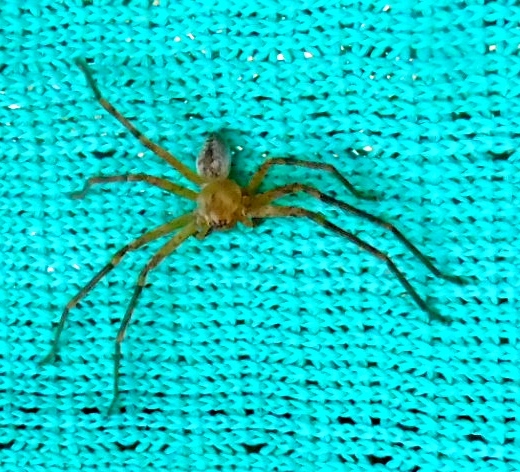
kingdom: Animalia
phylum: Arthropoda
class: Arachnida
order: Araneae
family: Sparassidae
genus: Curicaberis
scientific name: Curicaberis culiacan
